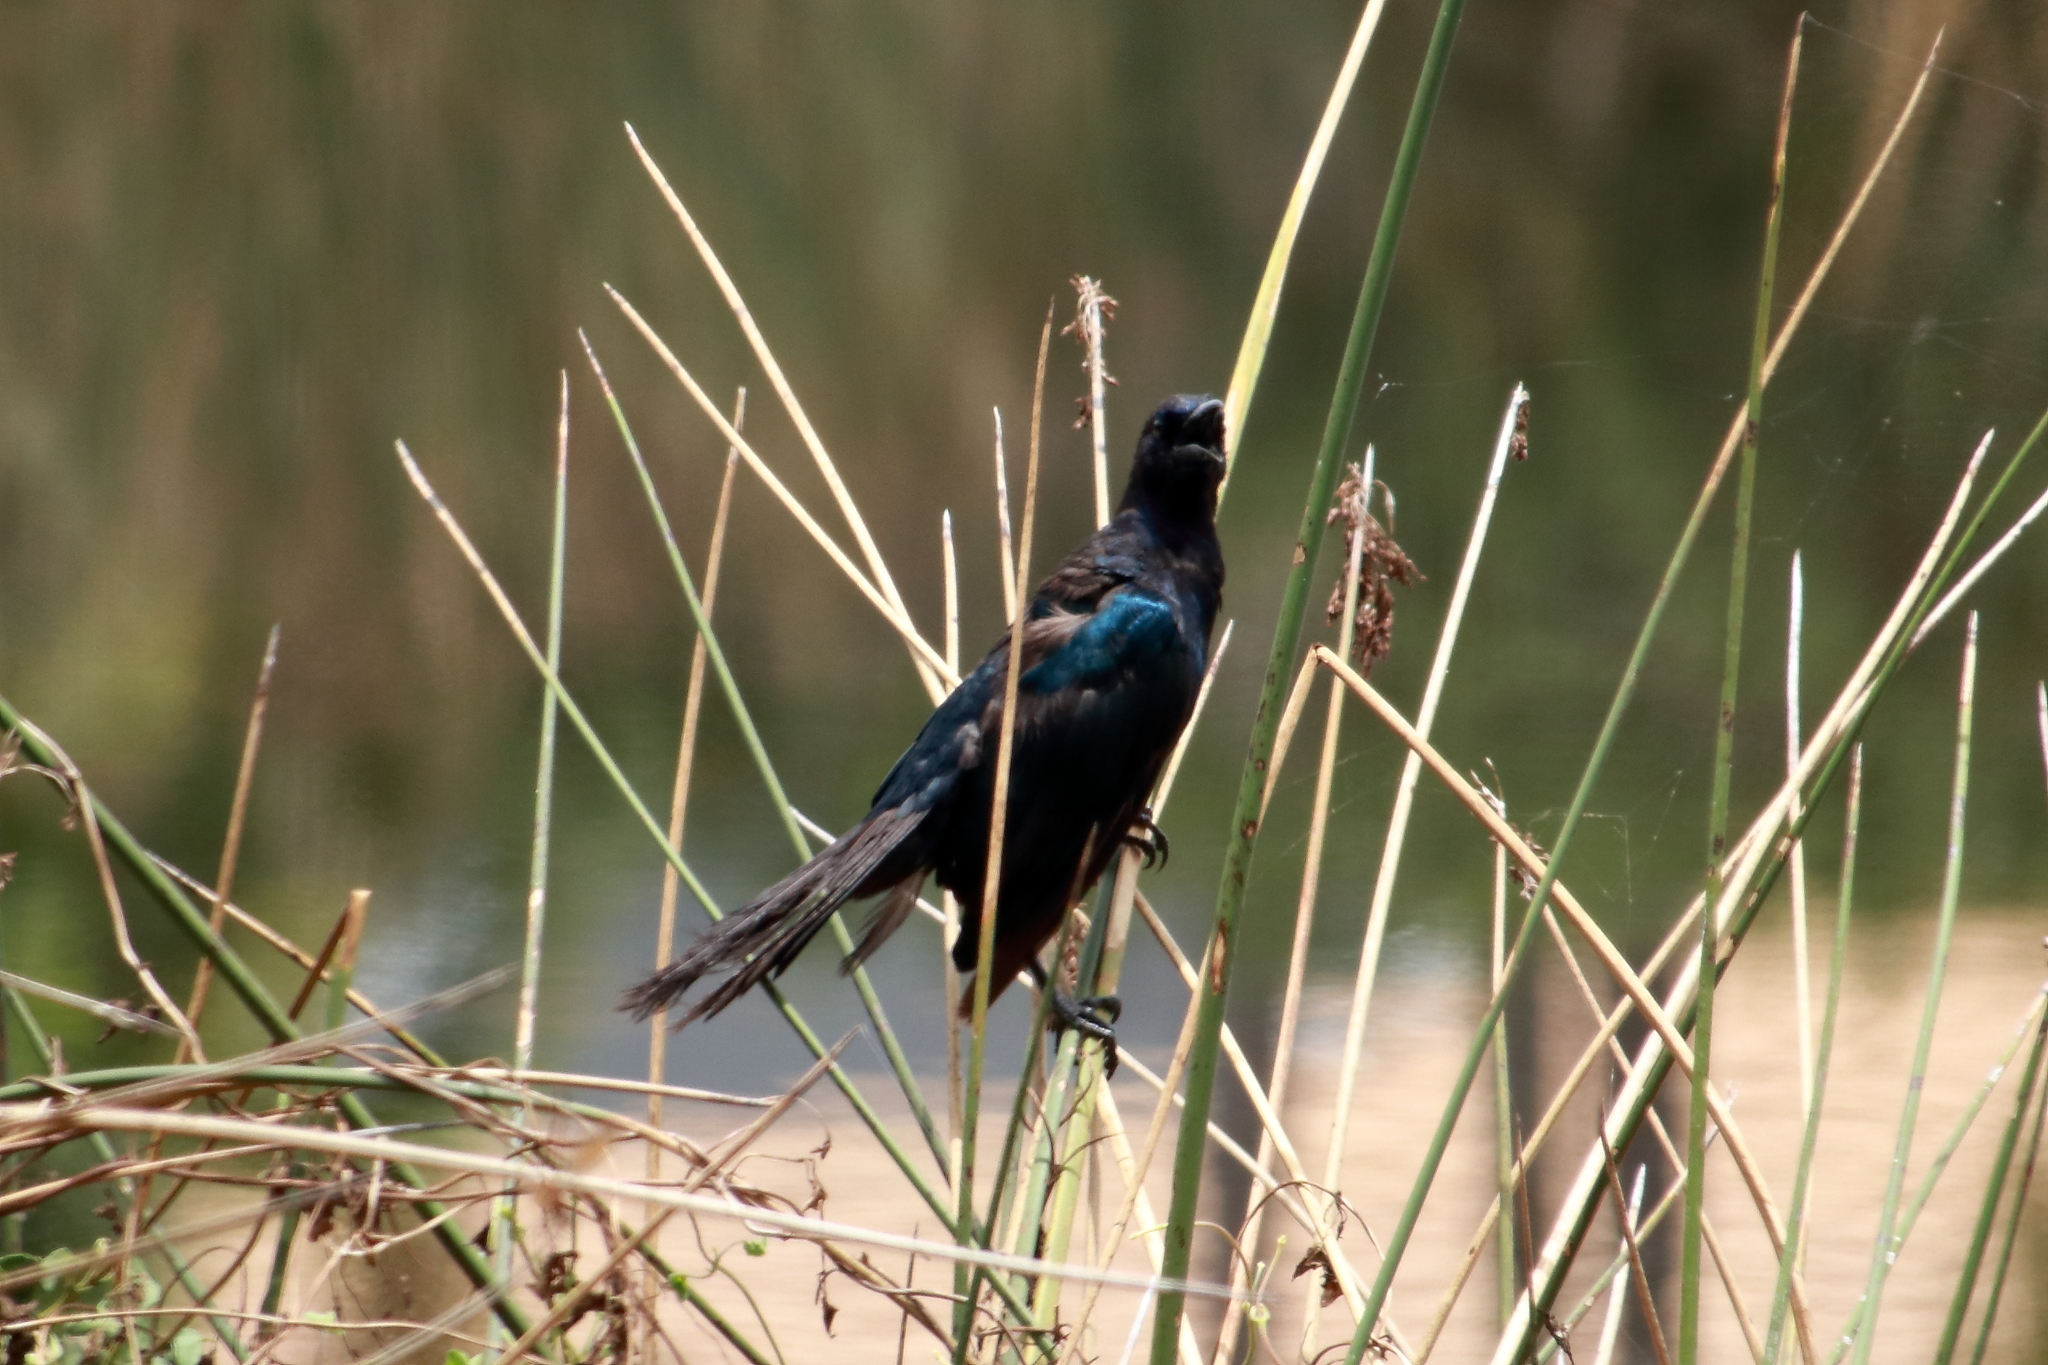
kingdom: Animalia
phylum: Chordata
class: Aves
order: Passeriformes
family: Icteridae
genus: Quiscalus
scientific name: Quiscalus major
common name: Boat-tailed grackle
